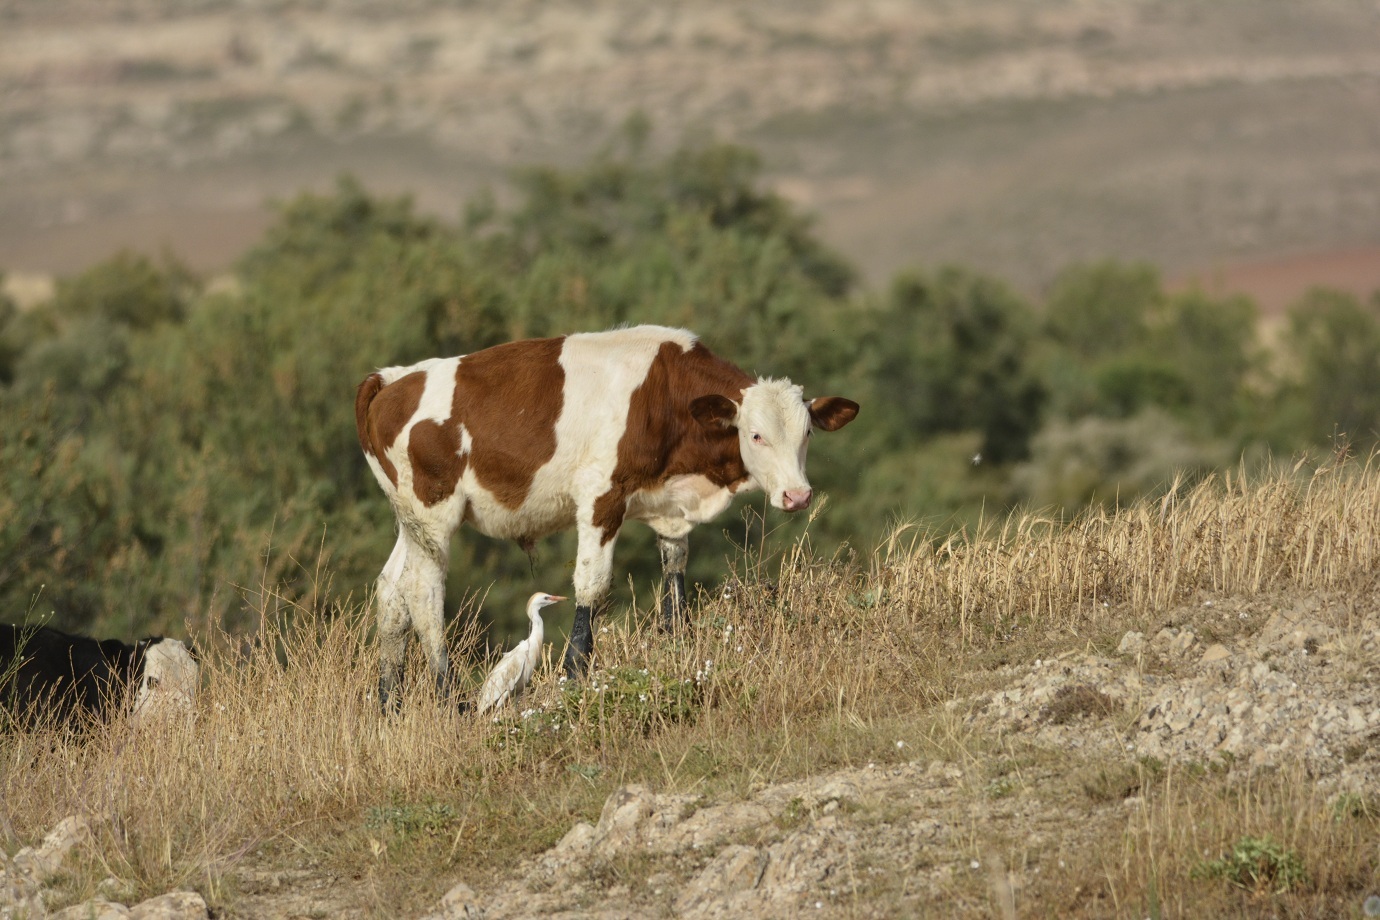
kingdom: Animalia
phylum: Chordata
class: Mammalia
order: Artiodactyla
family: Bovidae
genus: Bos
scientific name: Bos taurus
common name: Domesticated cattle
